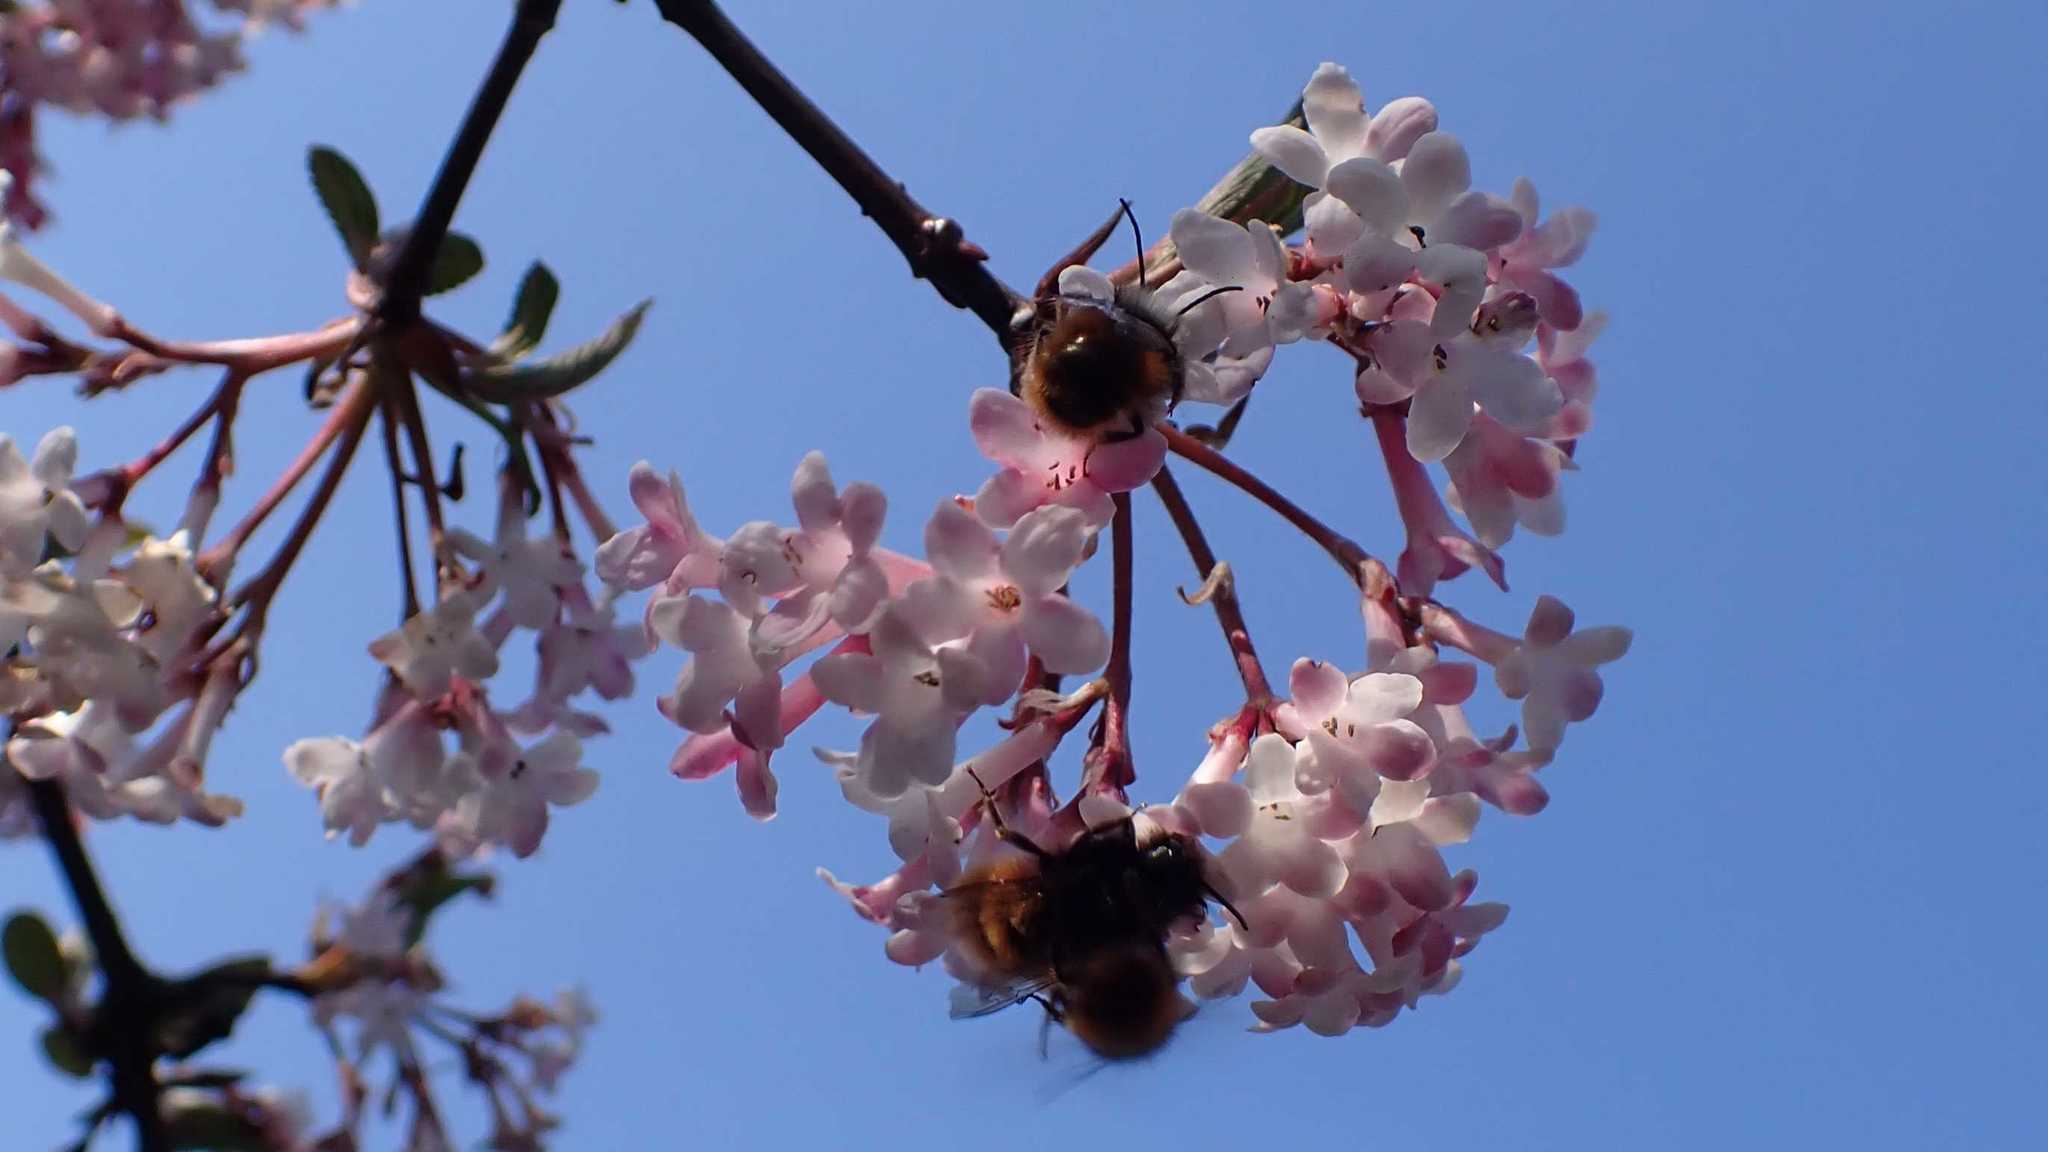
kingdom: Animalia
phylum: Arthropoda
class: Insecta
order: Hymenoptera
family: Megachilidae
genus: Osmia
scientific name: Osmia cornuta
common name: Mason bee
